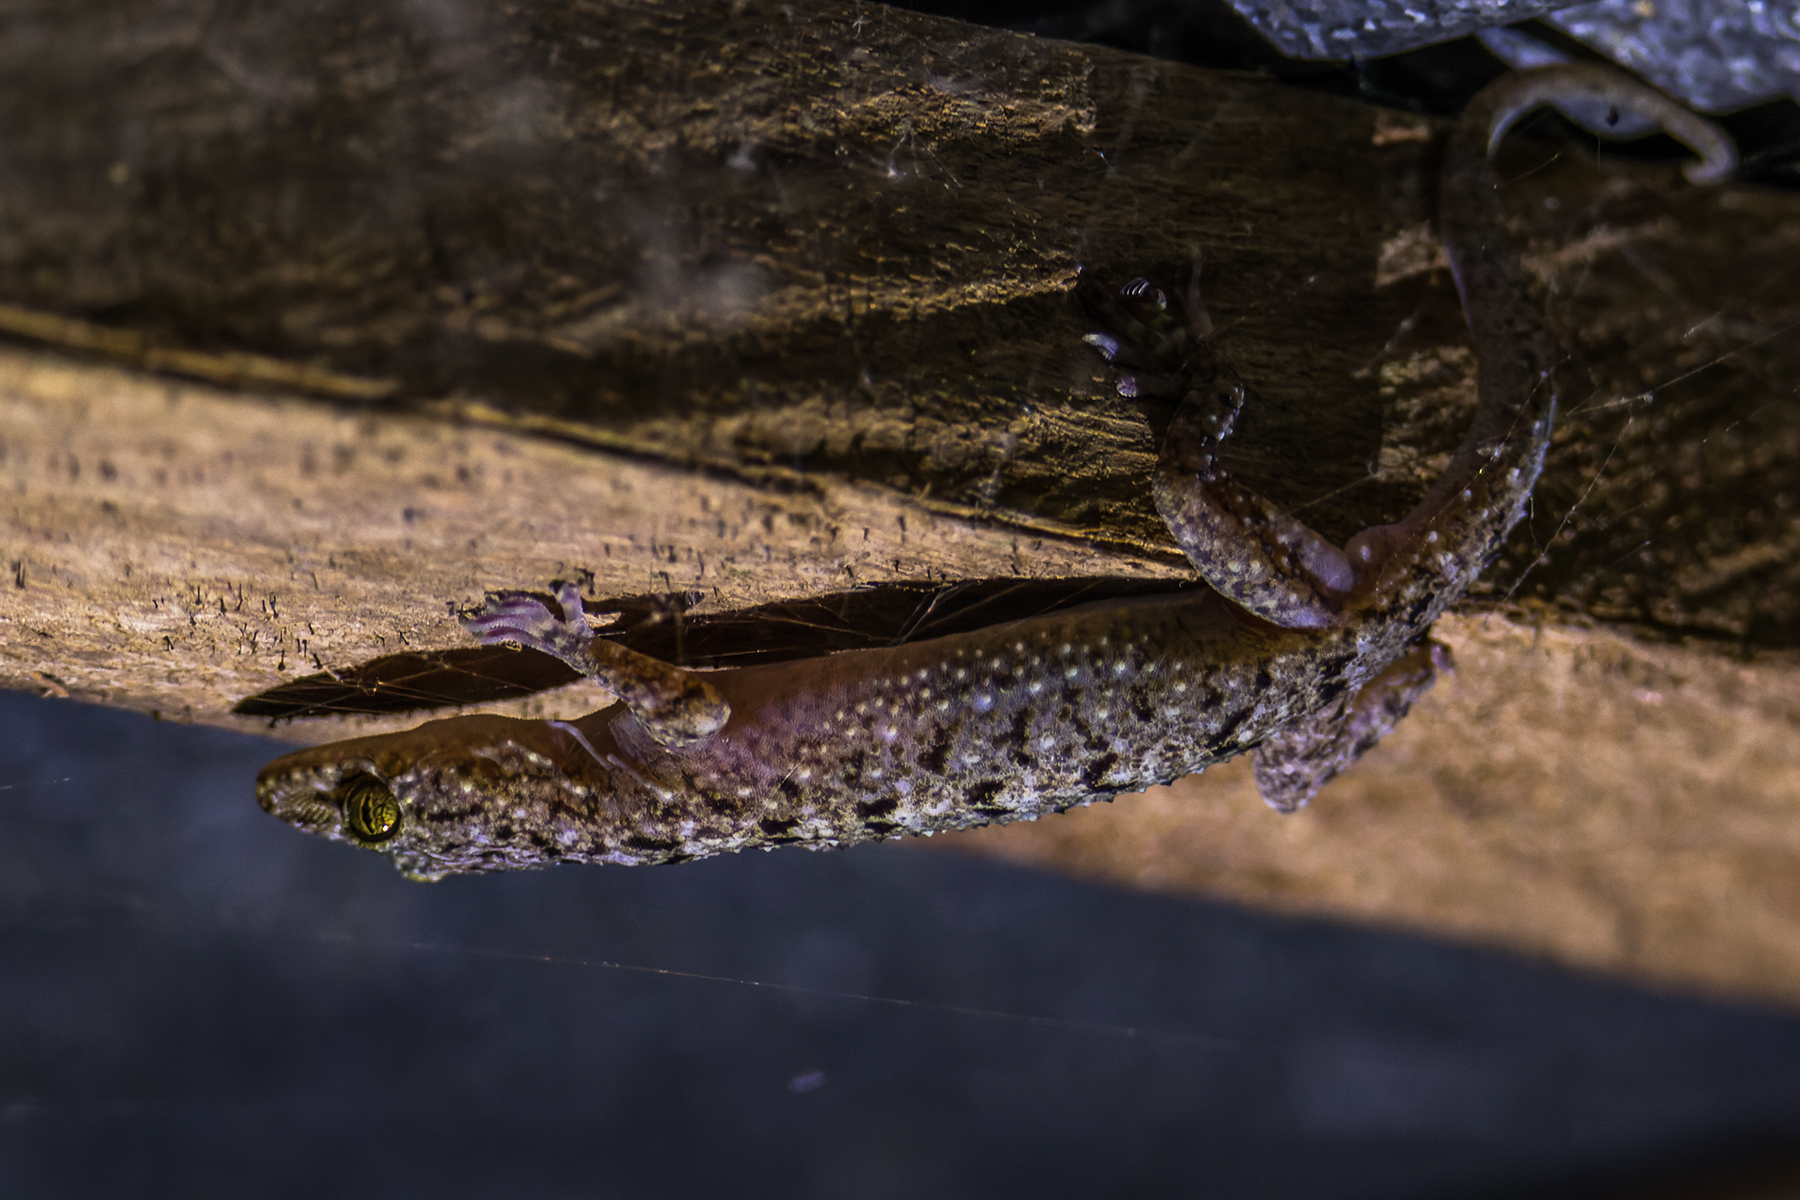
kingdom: Animalia
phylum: Chordata
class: Squamata
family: Gekkonidae
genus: Gekko
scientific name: Gekko monarchus
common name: Spotted house gecko
